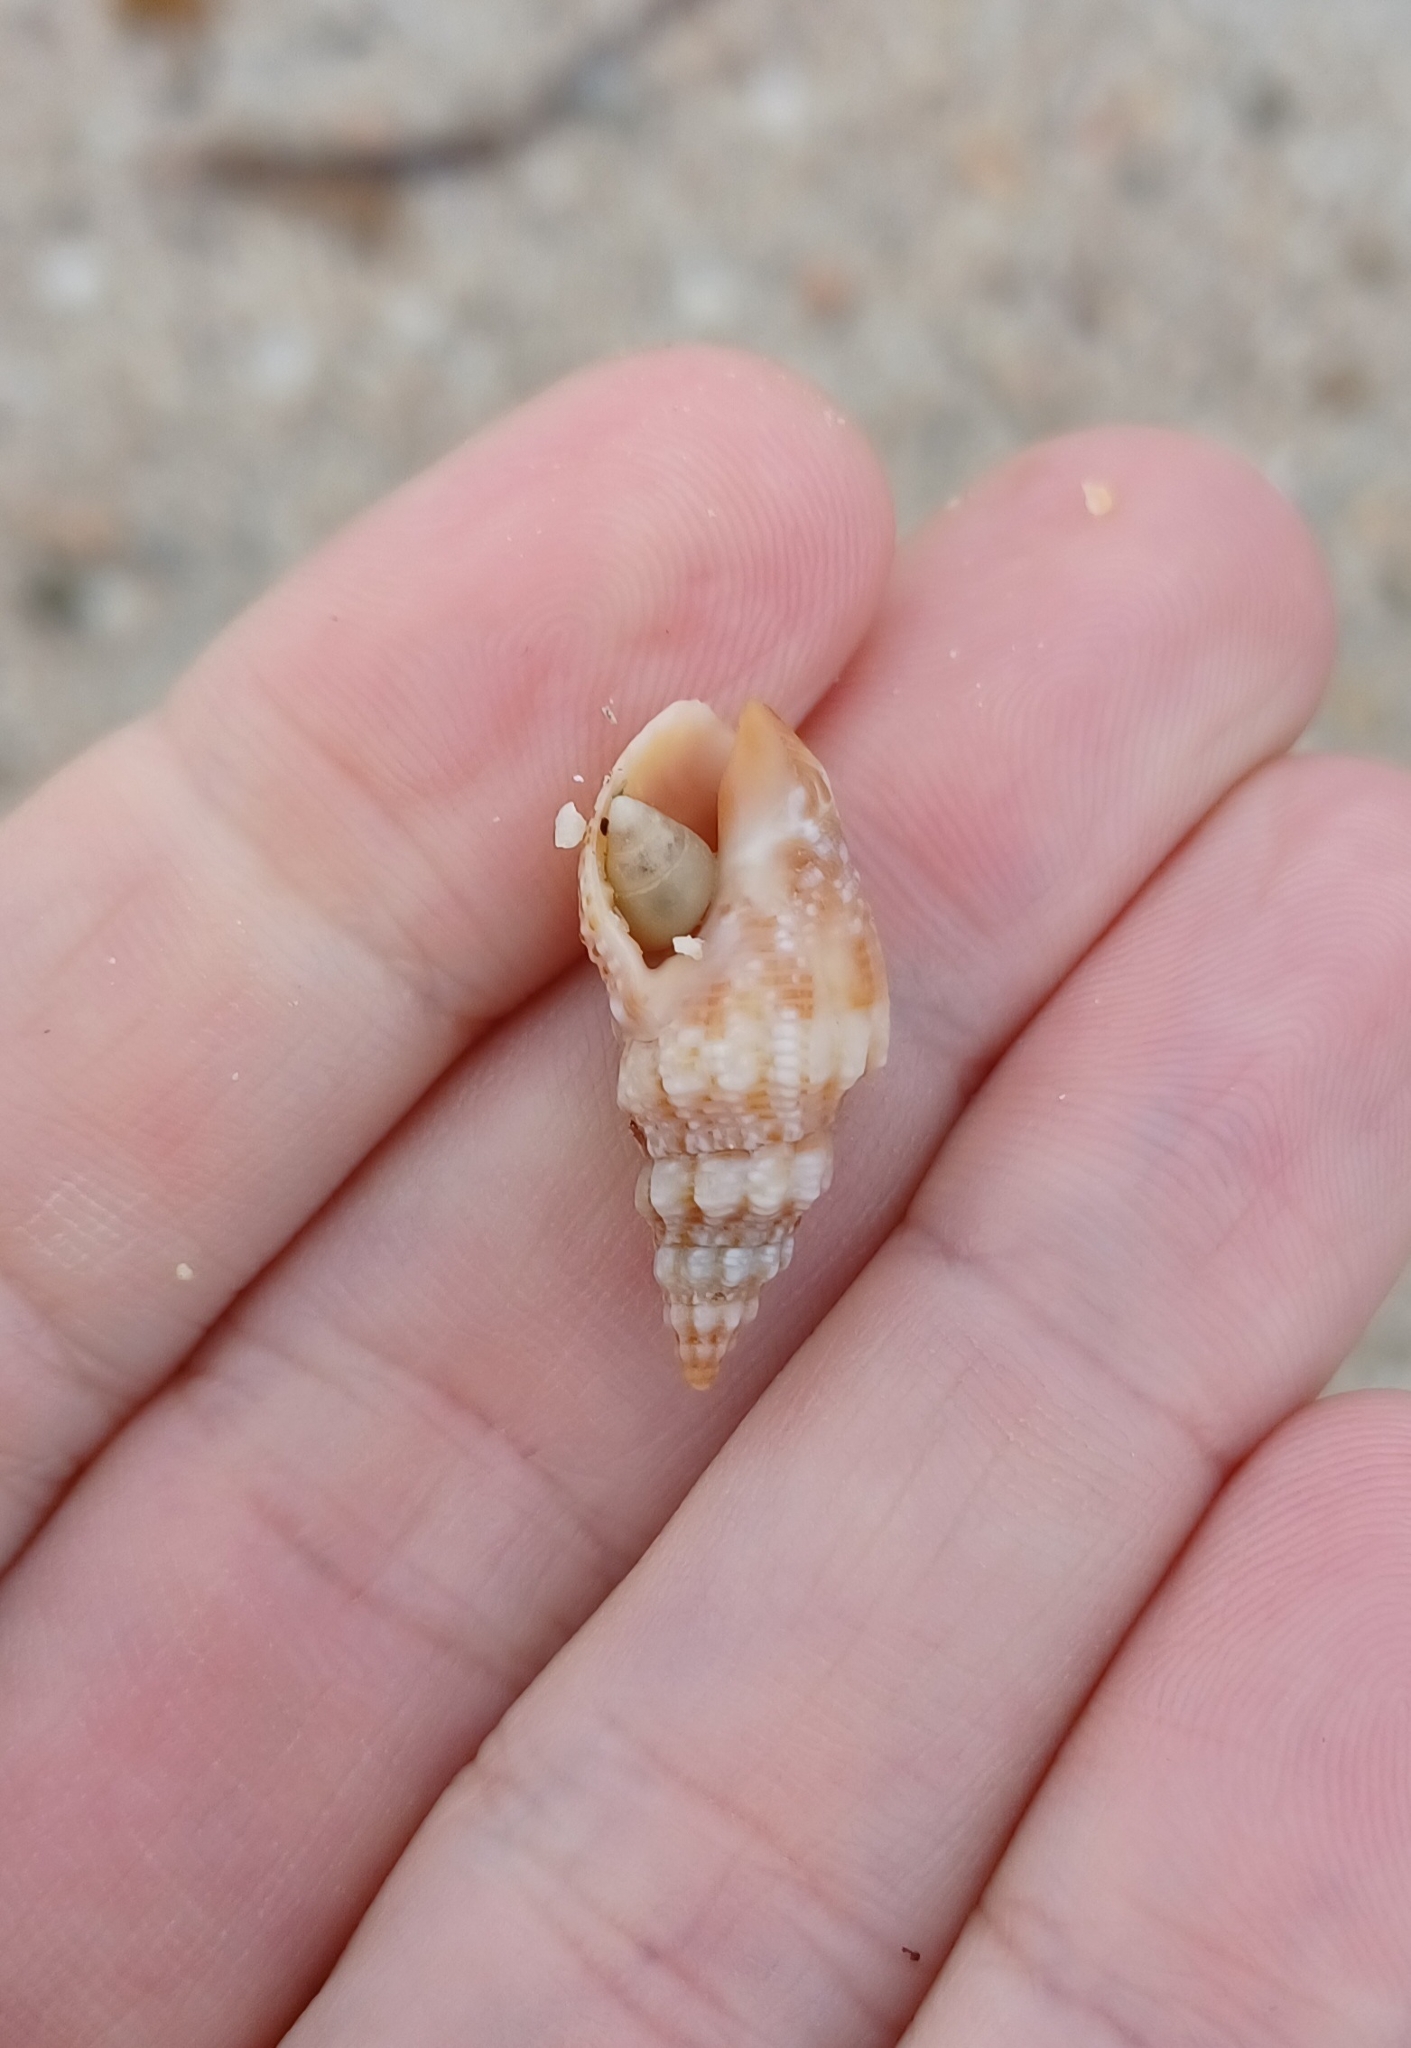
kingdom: Animalia
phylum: Mollusca
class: Gastropoda
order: Neogastropoda
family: Cominellidae
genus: Cominella
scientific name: Cominella eburnea
